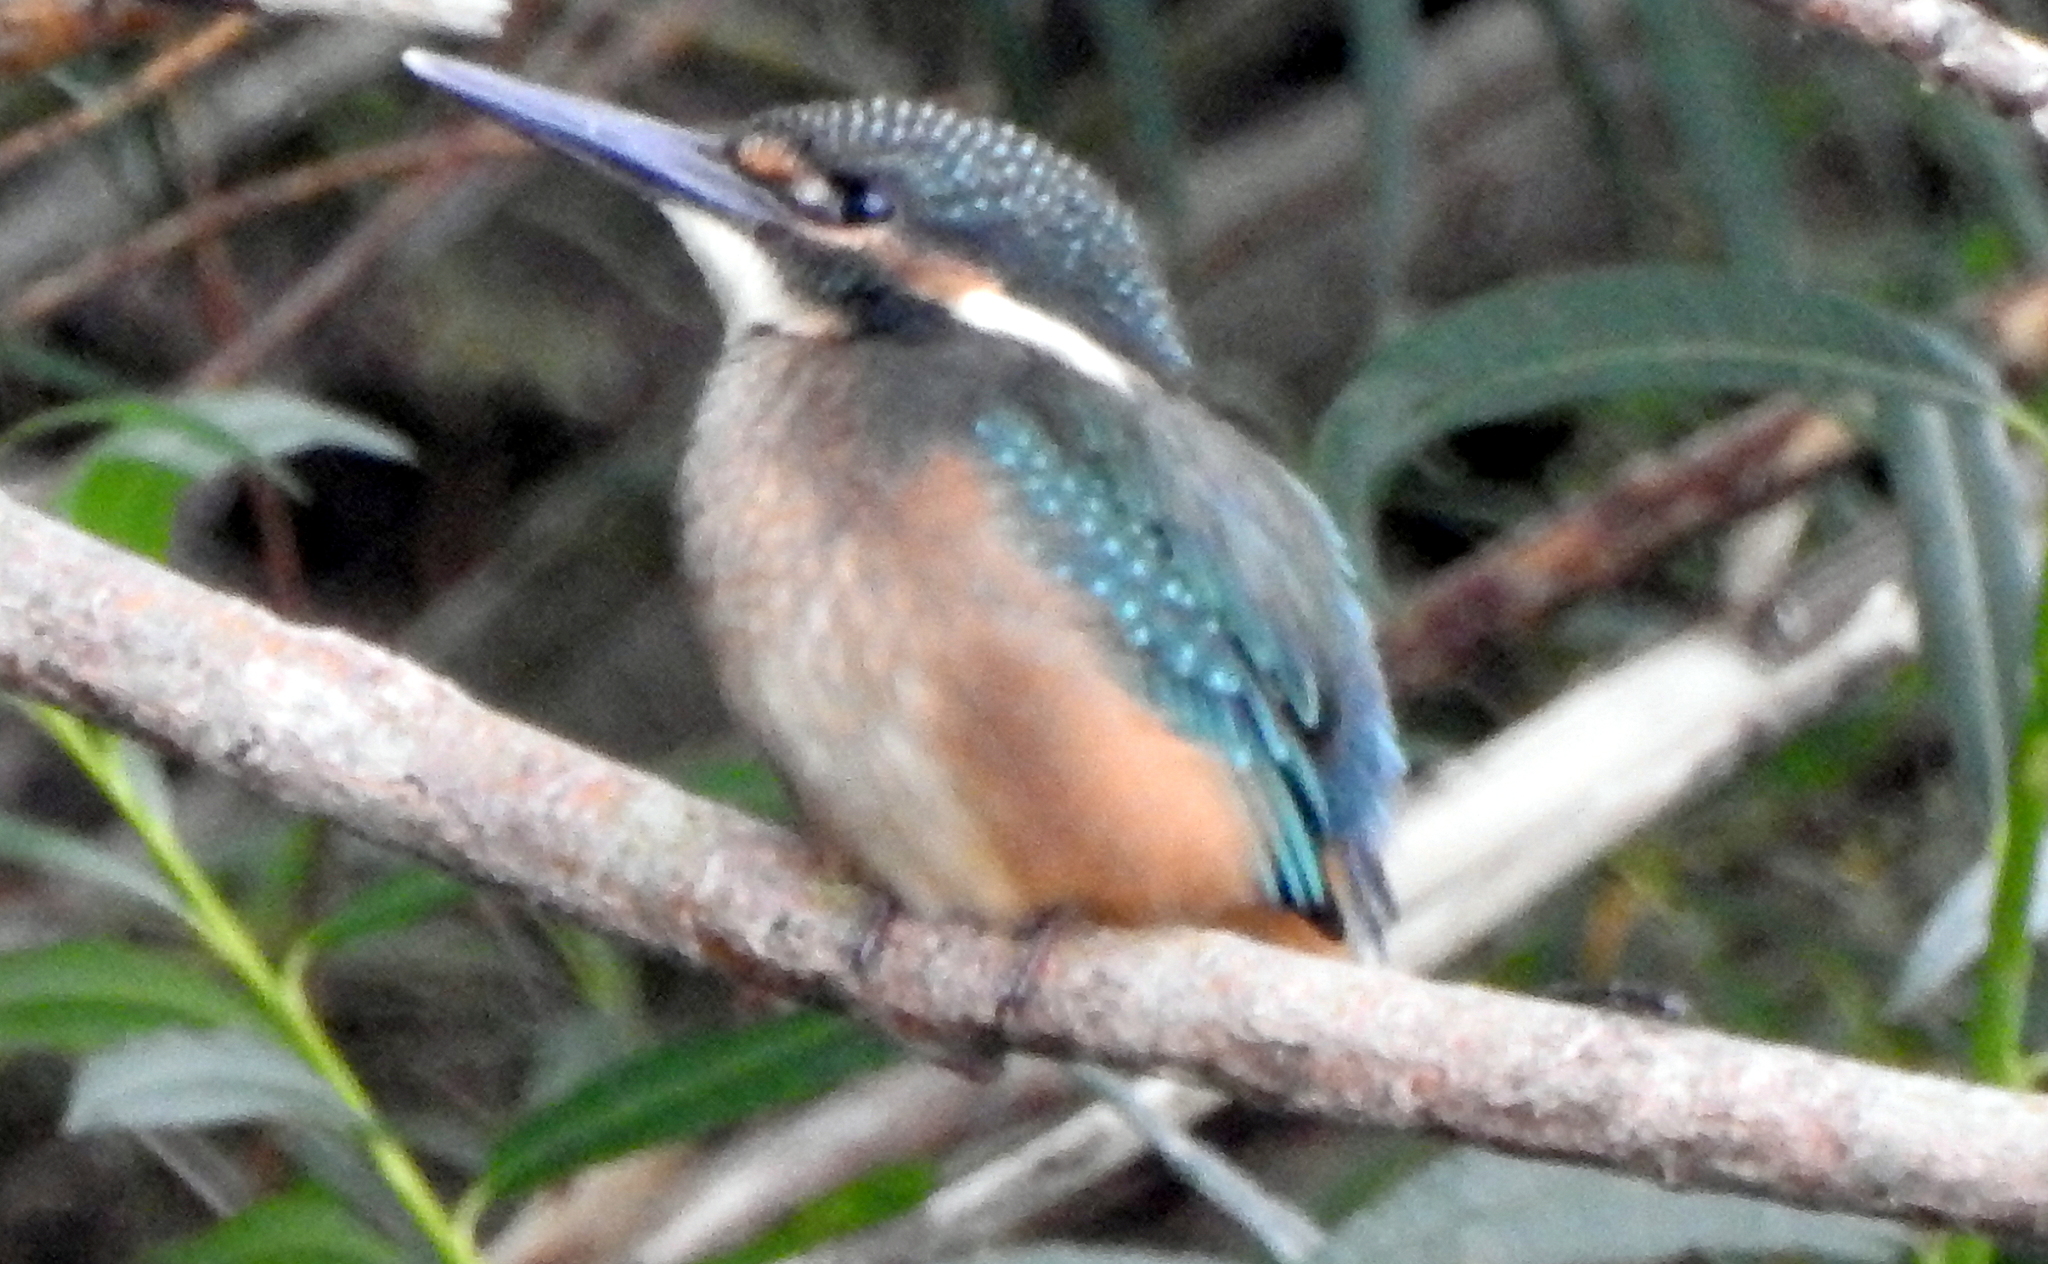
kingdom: Animalia
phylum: Chordata
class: Aves
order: Coraciiformes
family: Alcedinidae
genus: Alcedo
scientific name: Alcedo atthis
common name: Common kingfisher
